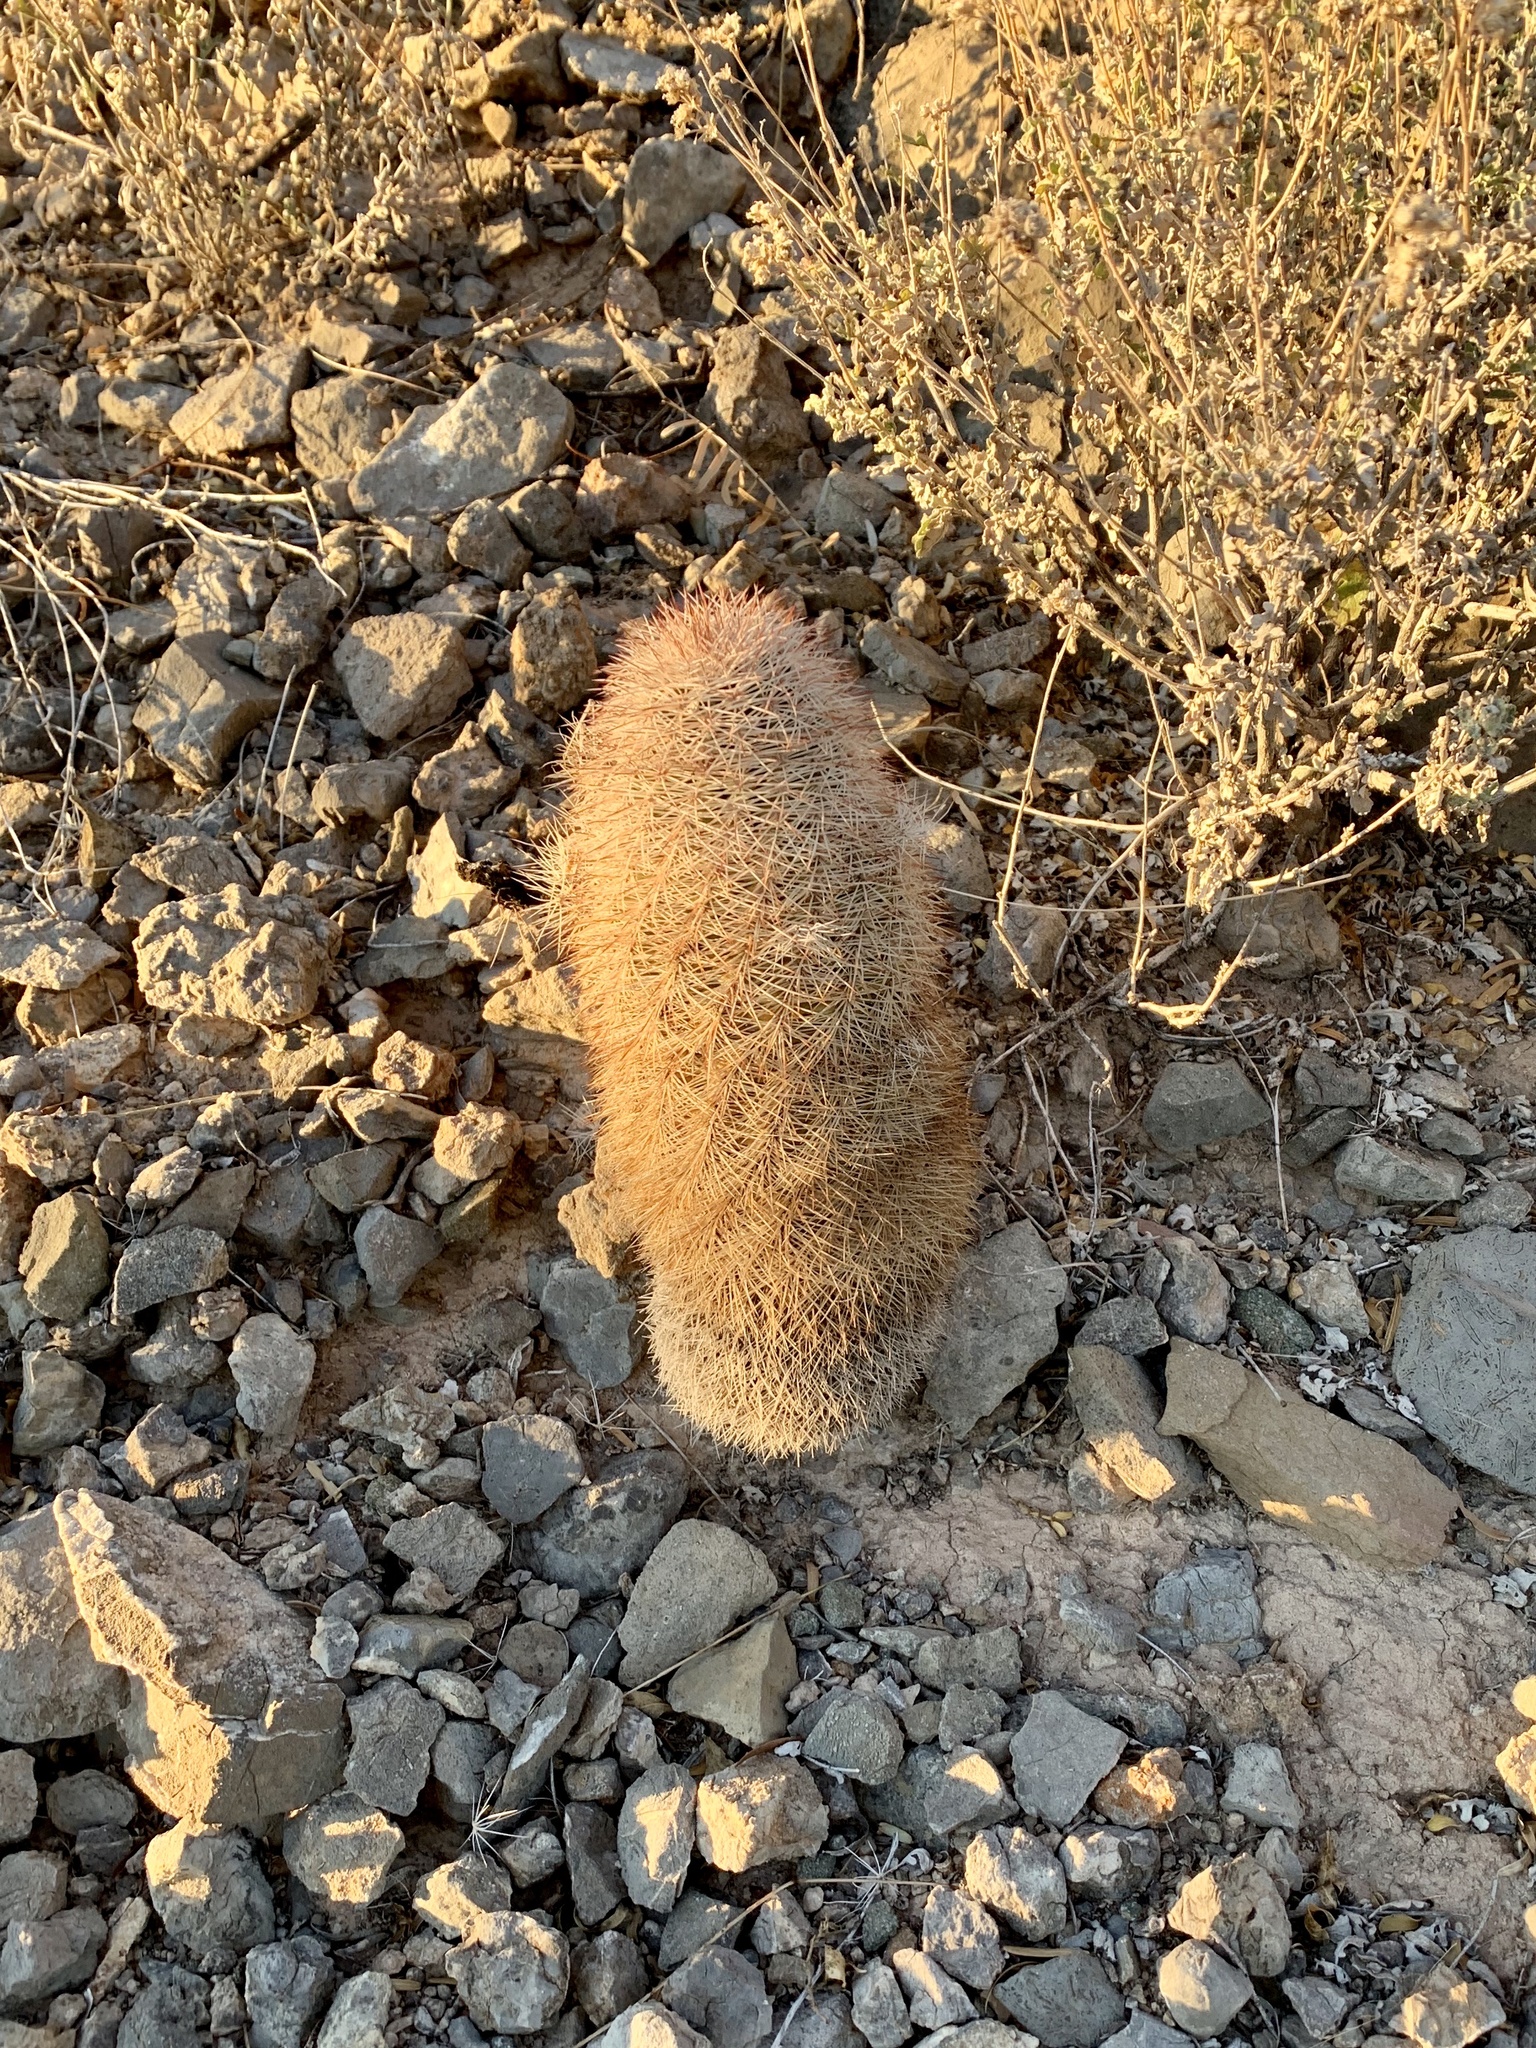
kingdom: Plantae
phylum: Tracheophyta
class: Magnoliopsida
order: Caryophyllales
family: Cactaceae
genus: Echinocereus
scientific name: Echinocereus dasyacanthus
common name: Spiny hedgehog cactus
